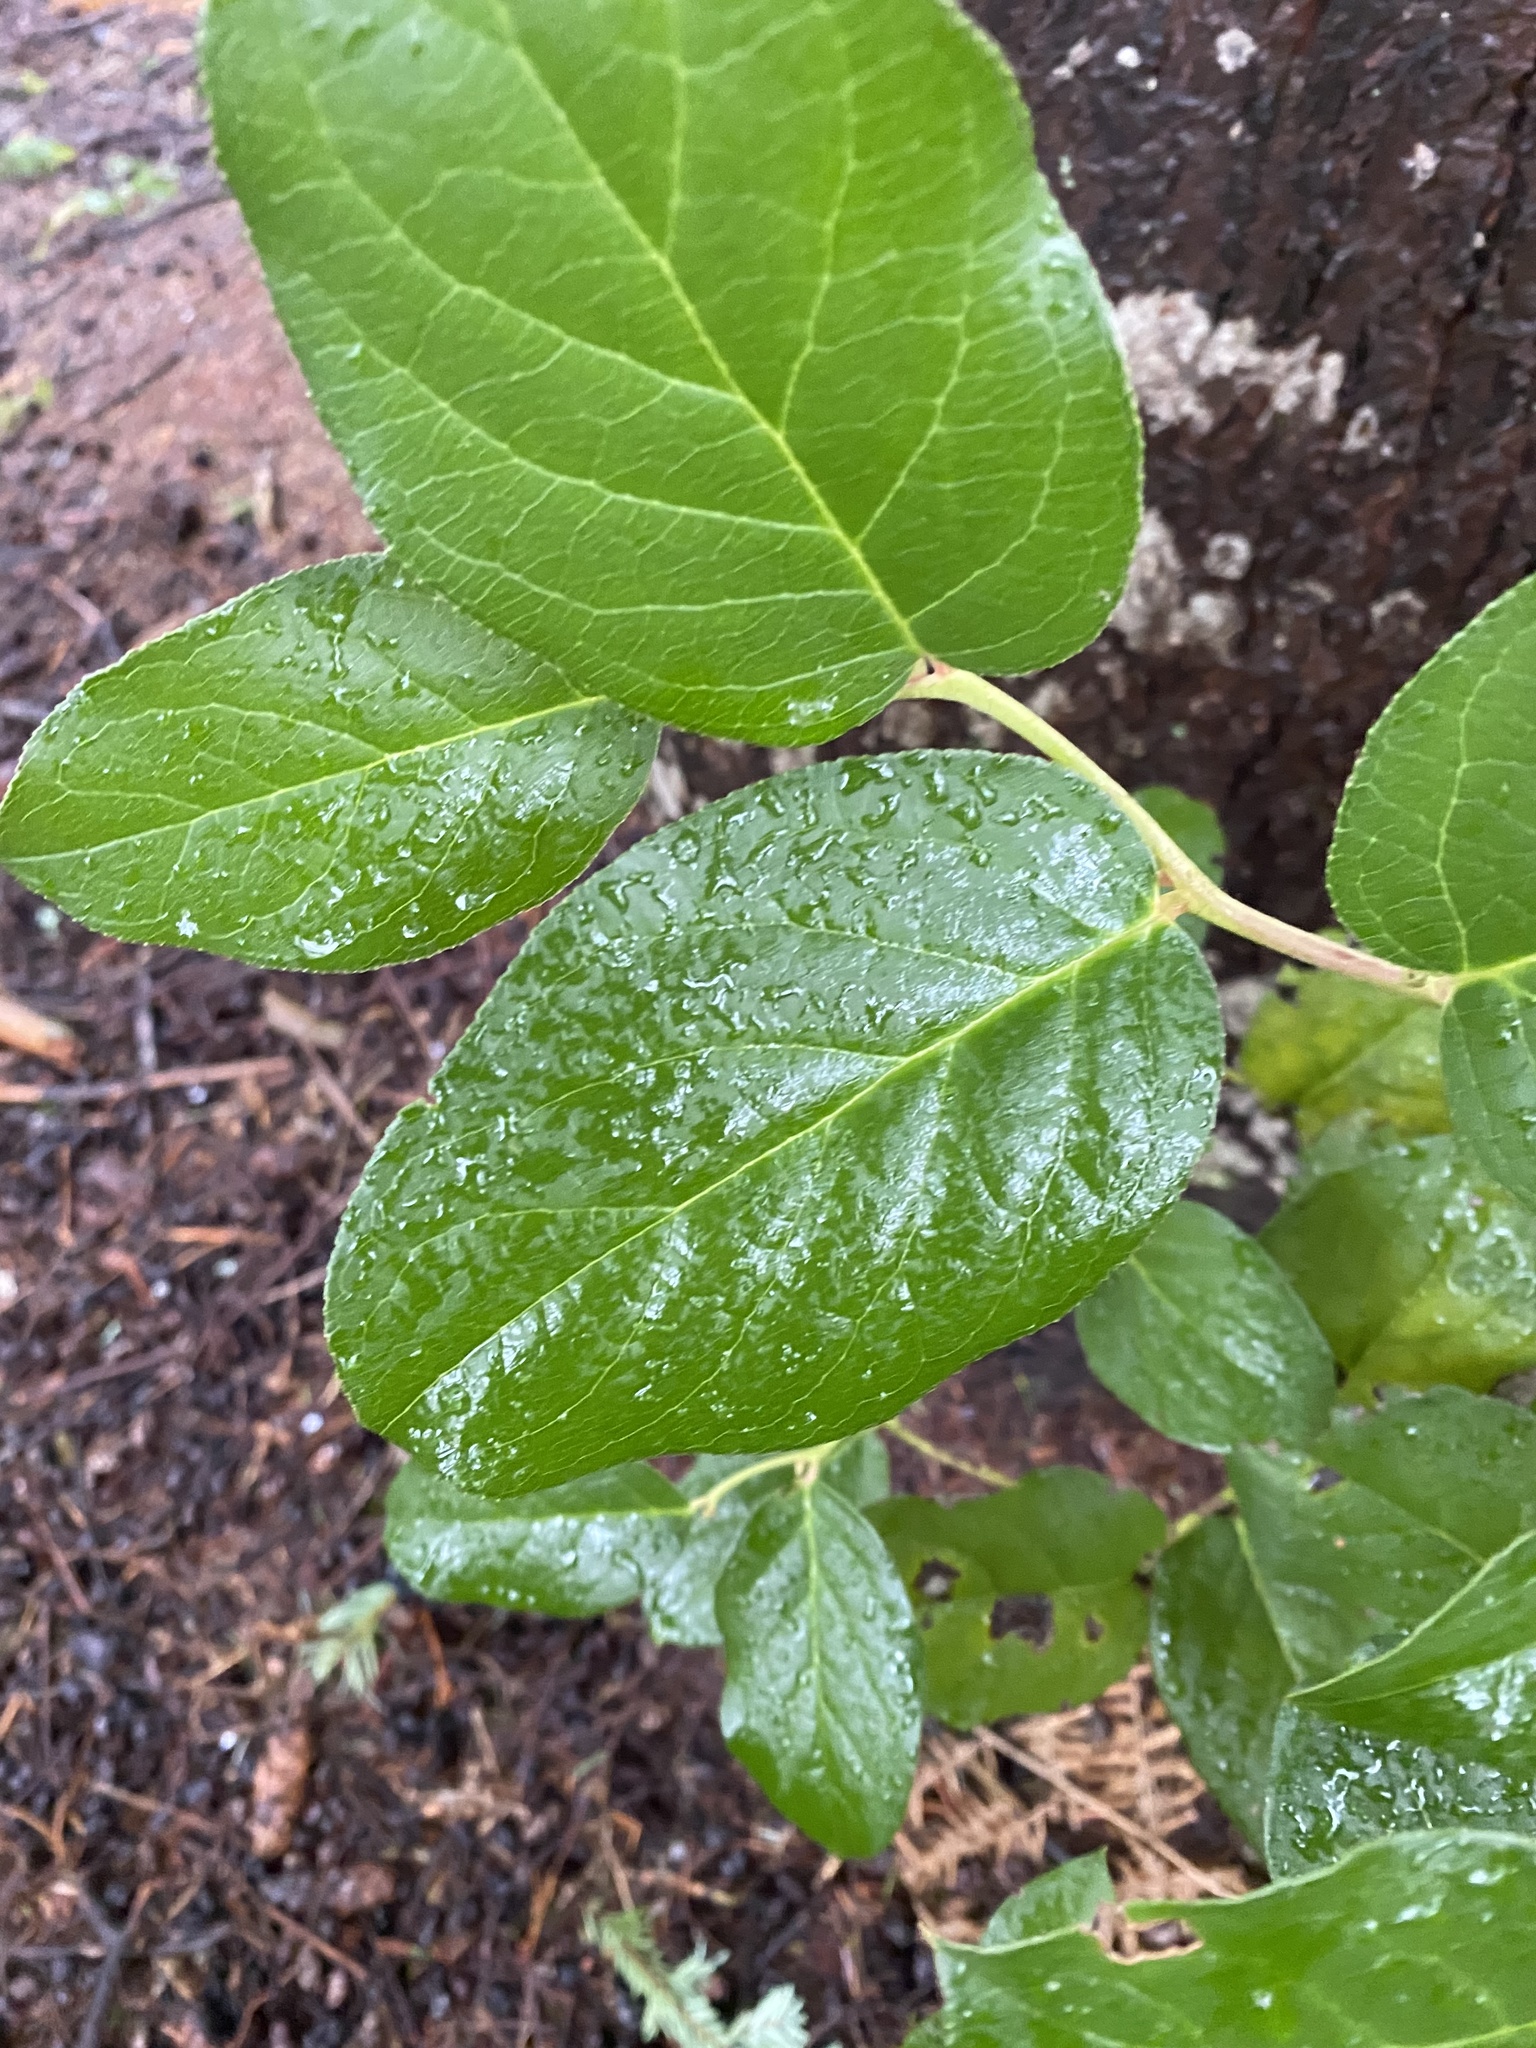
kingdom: Plantae
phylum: Tracheophyta
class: Magnoliopsida
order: Ericales
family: Ericaceae
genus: Gaultheria
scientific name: Gaultheria shallon
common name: Shallon
